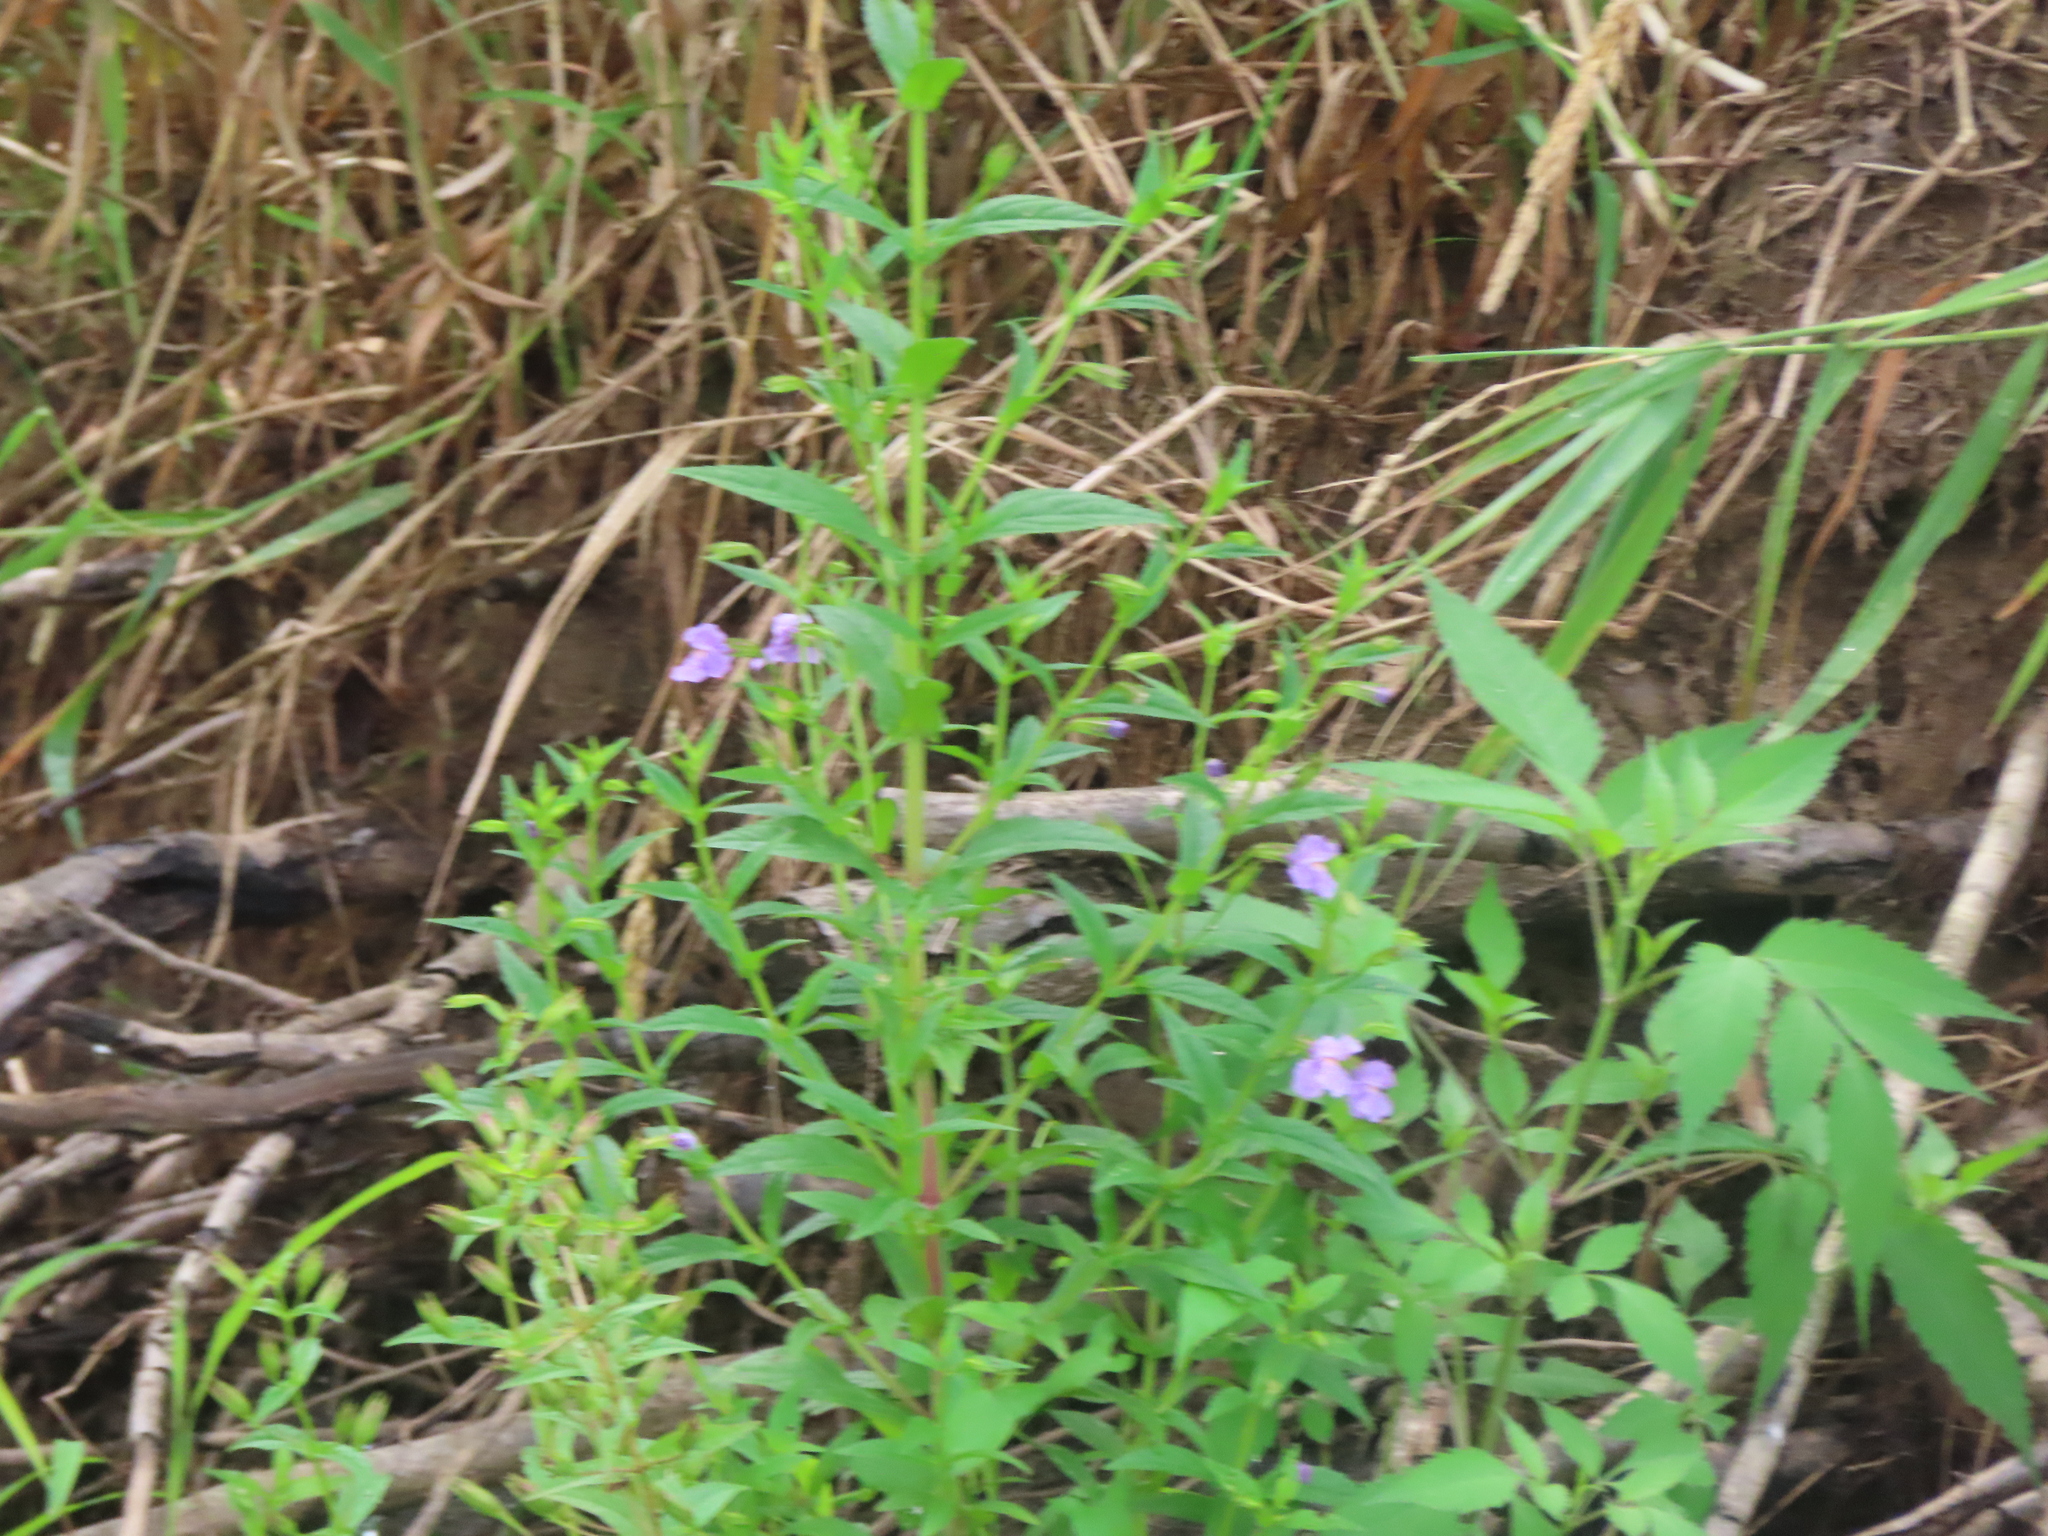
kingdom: Plantae
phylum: Tracheophyta
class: Magnoliopsida
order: Lamiales
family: Phrymaceae
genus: Mimulus
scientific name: Mimulus ringens
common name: Allegheny monkeyflower
